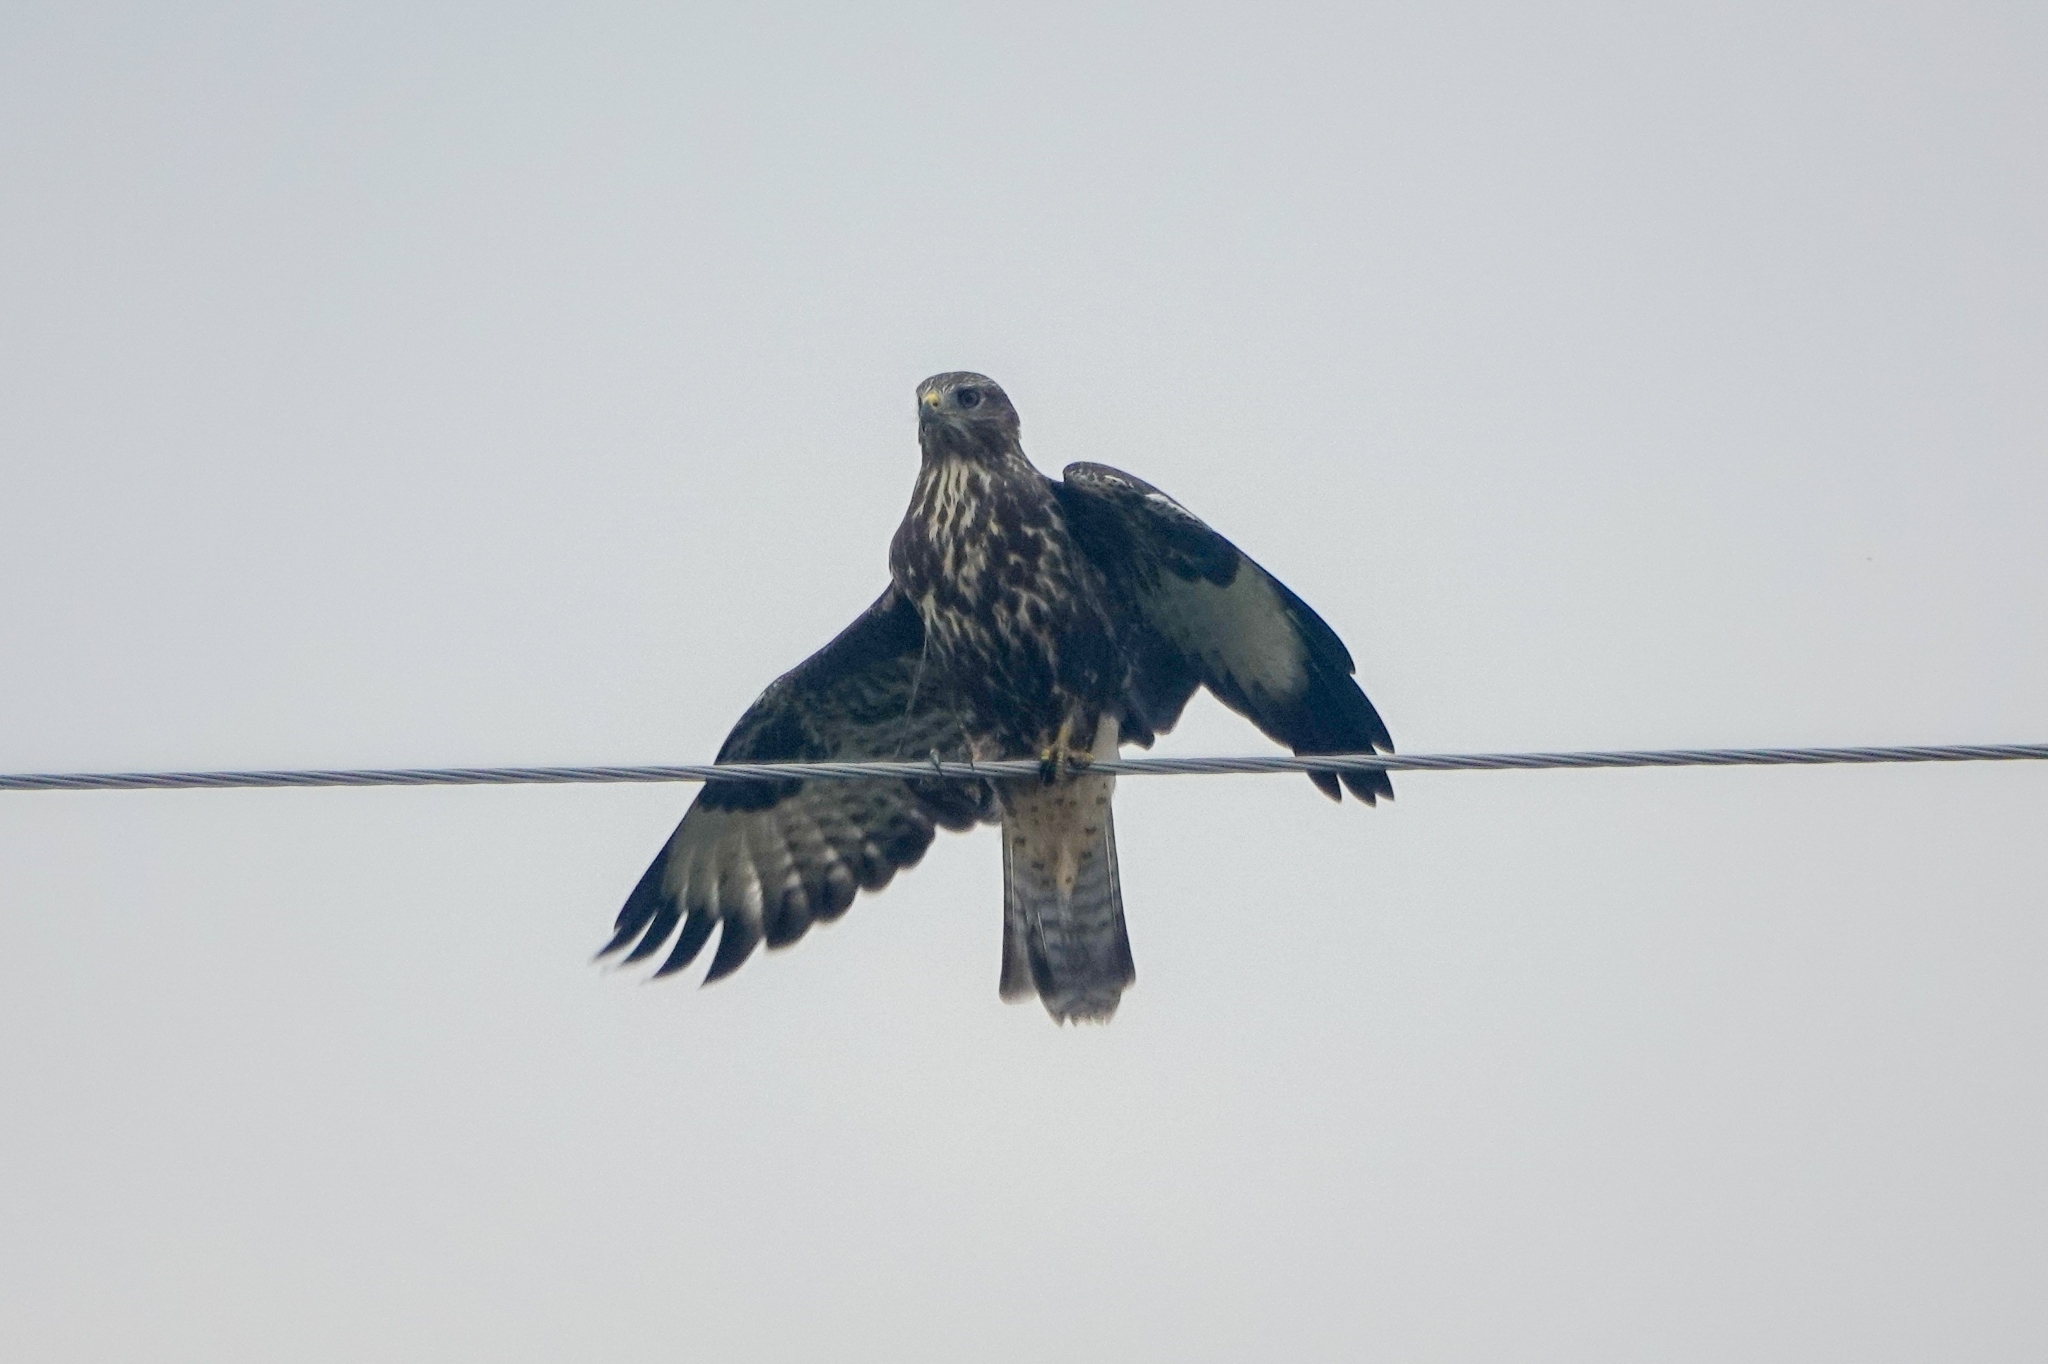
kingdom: Animalia
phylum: Chordata
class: Aves
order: Accipitriformes
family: Accipitridae
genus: Buteo
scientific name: Buteo buteo
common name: Common buzzard
